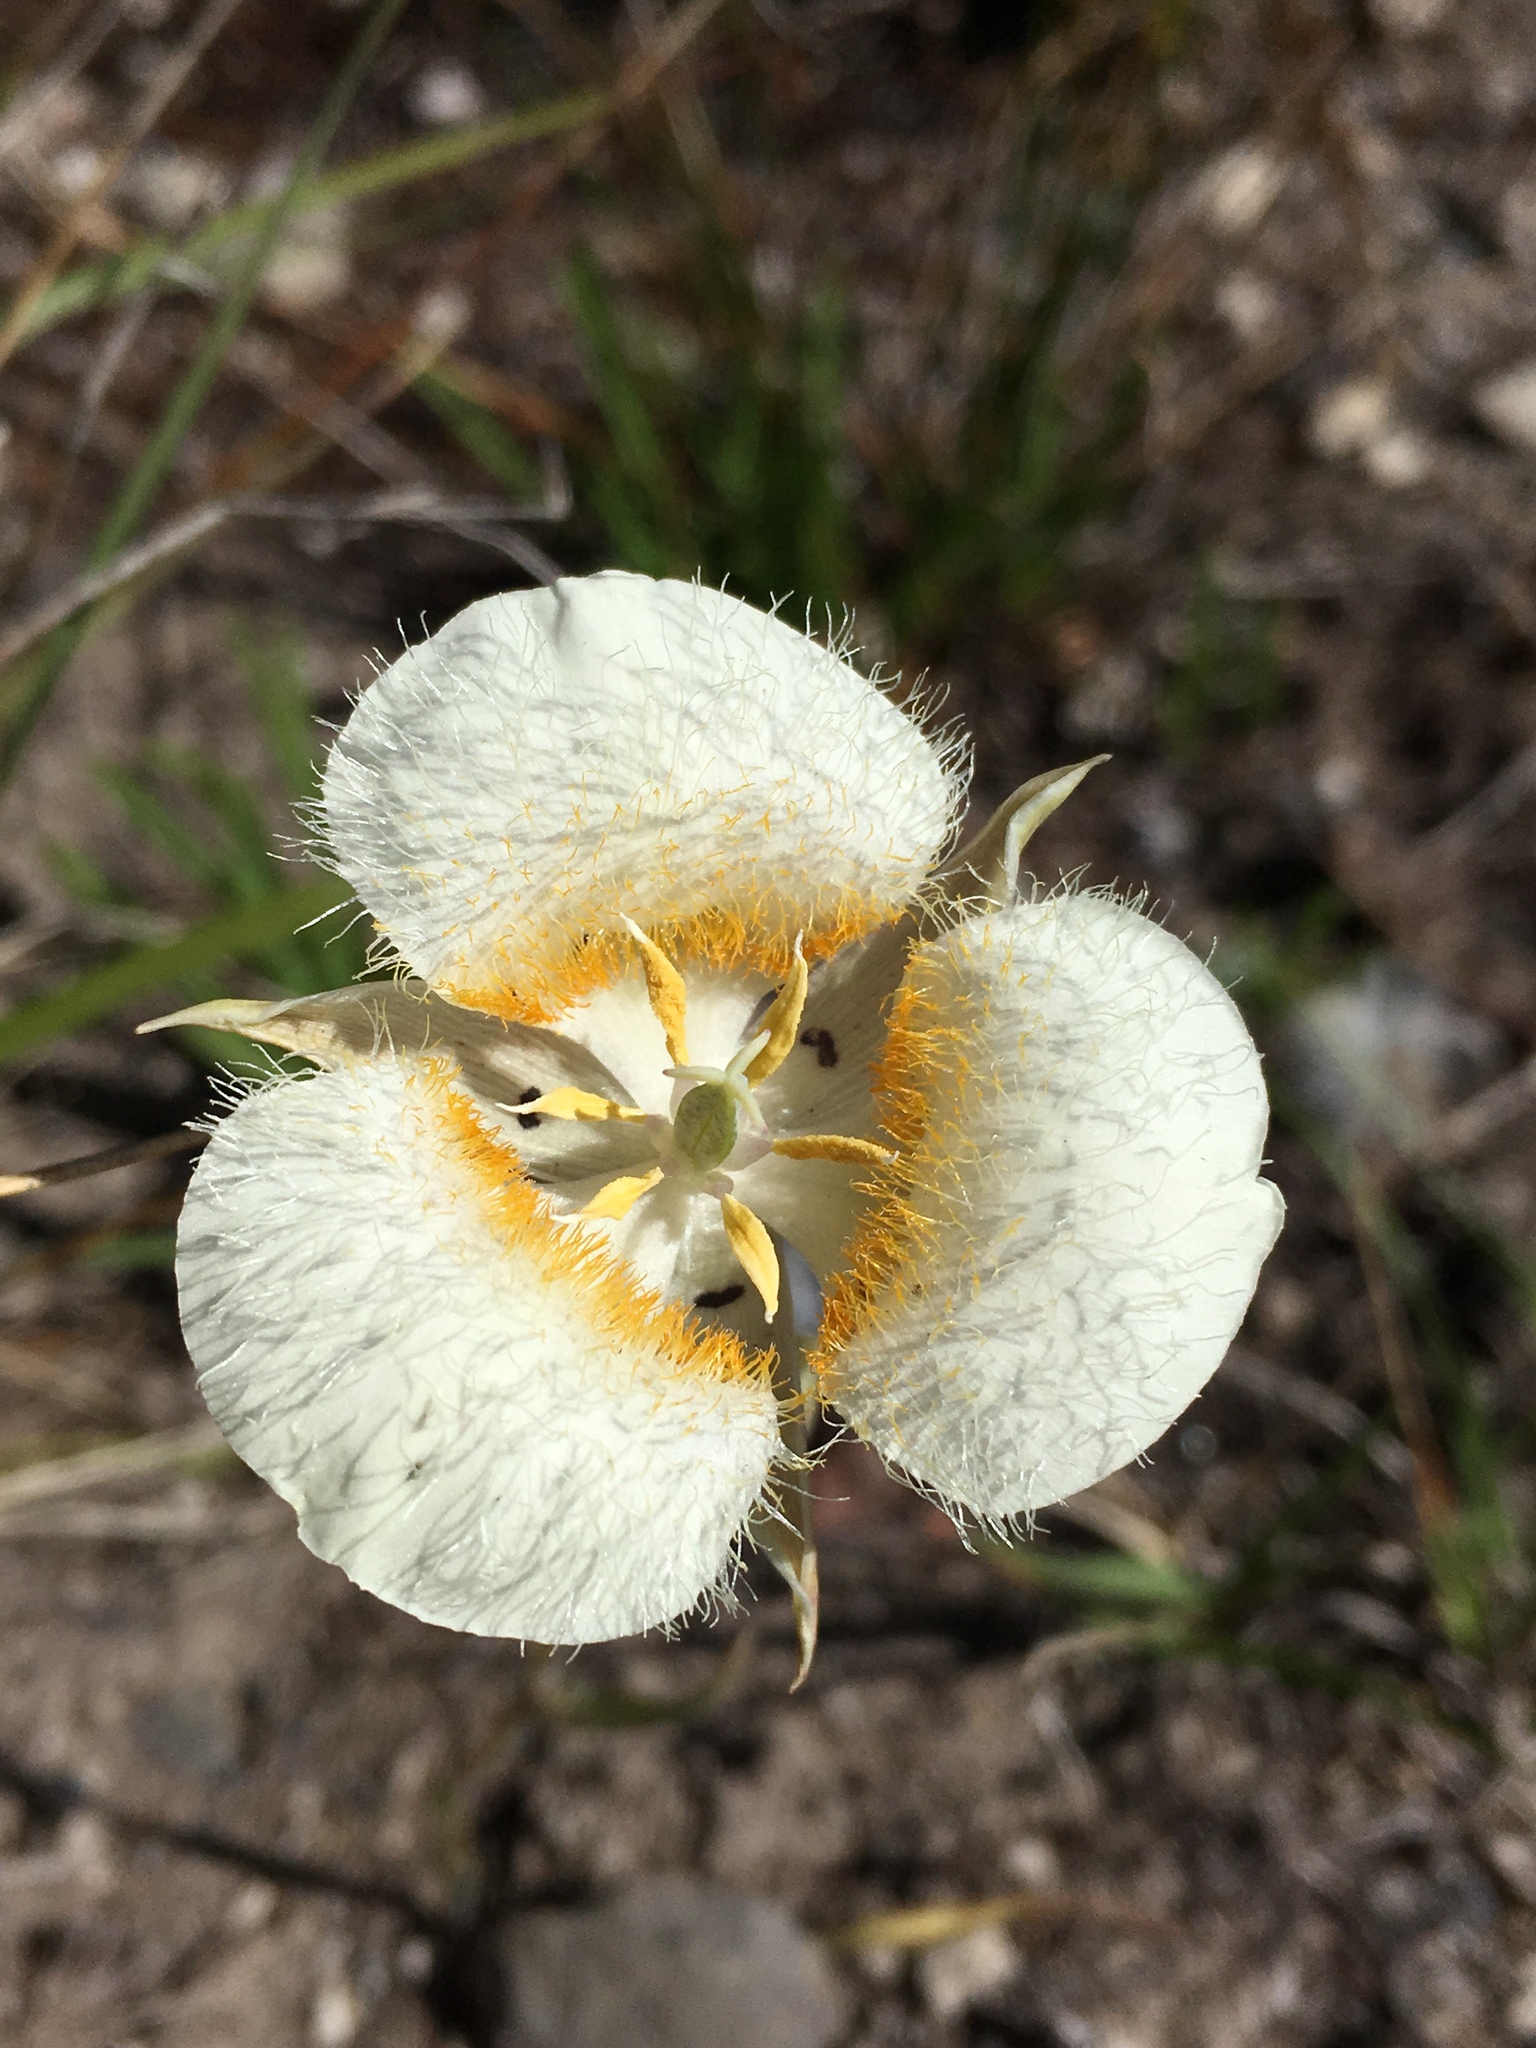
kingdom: Plantae
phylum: Tracheophyta
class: Liliopsida
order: Liliales
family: Liliaceae
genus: Calochortus
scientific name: Calochortus subalpinus
